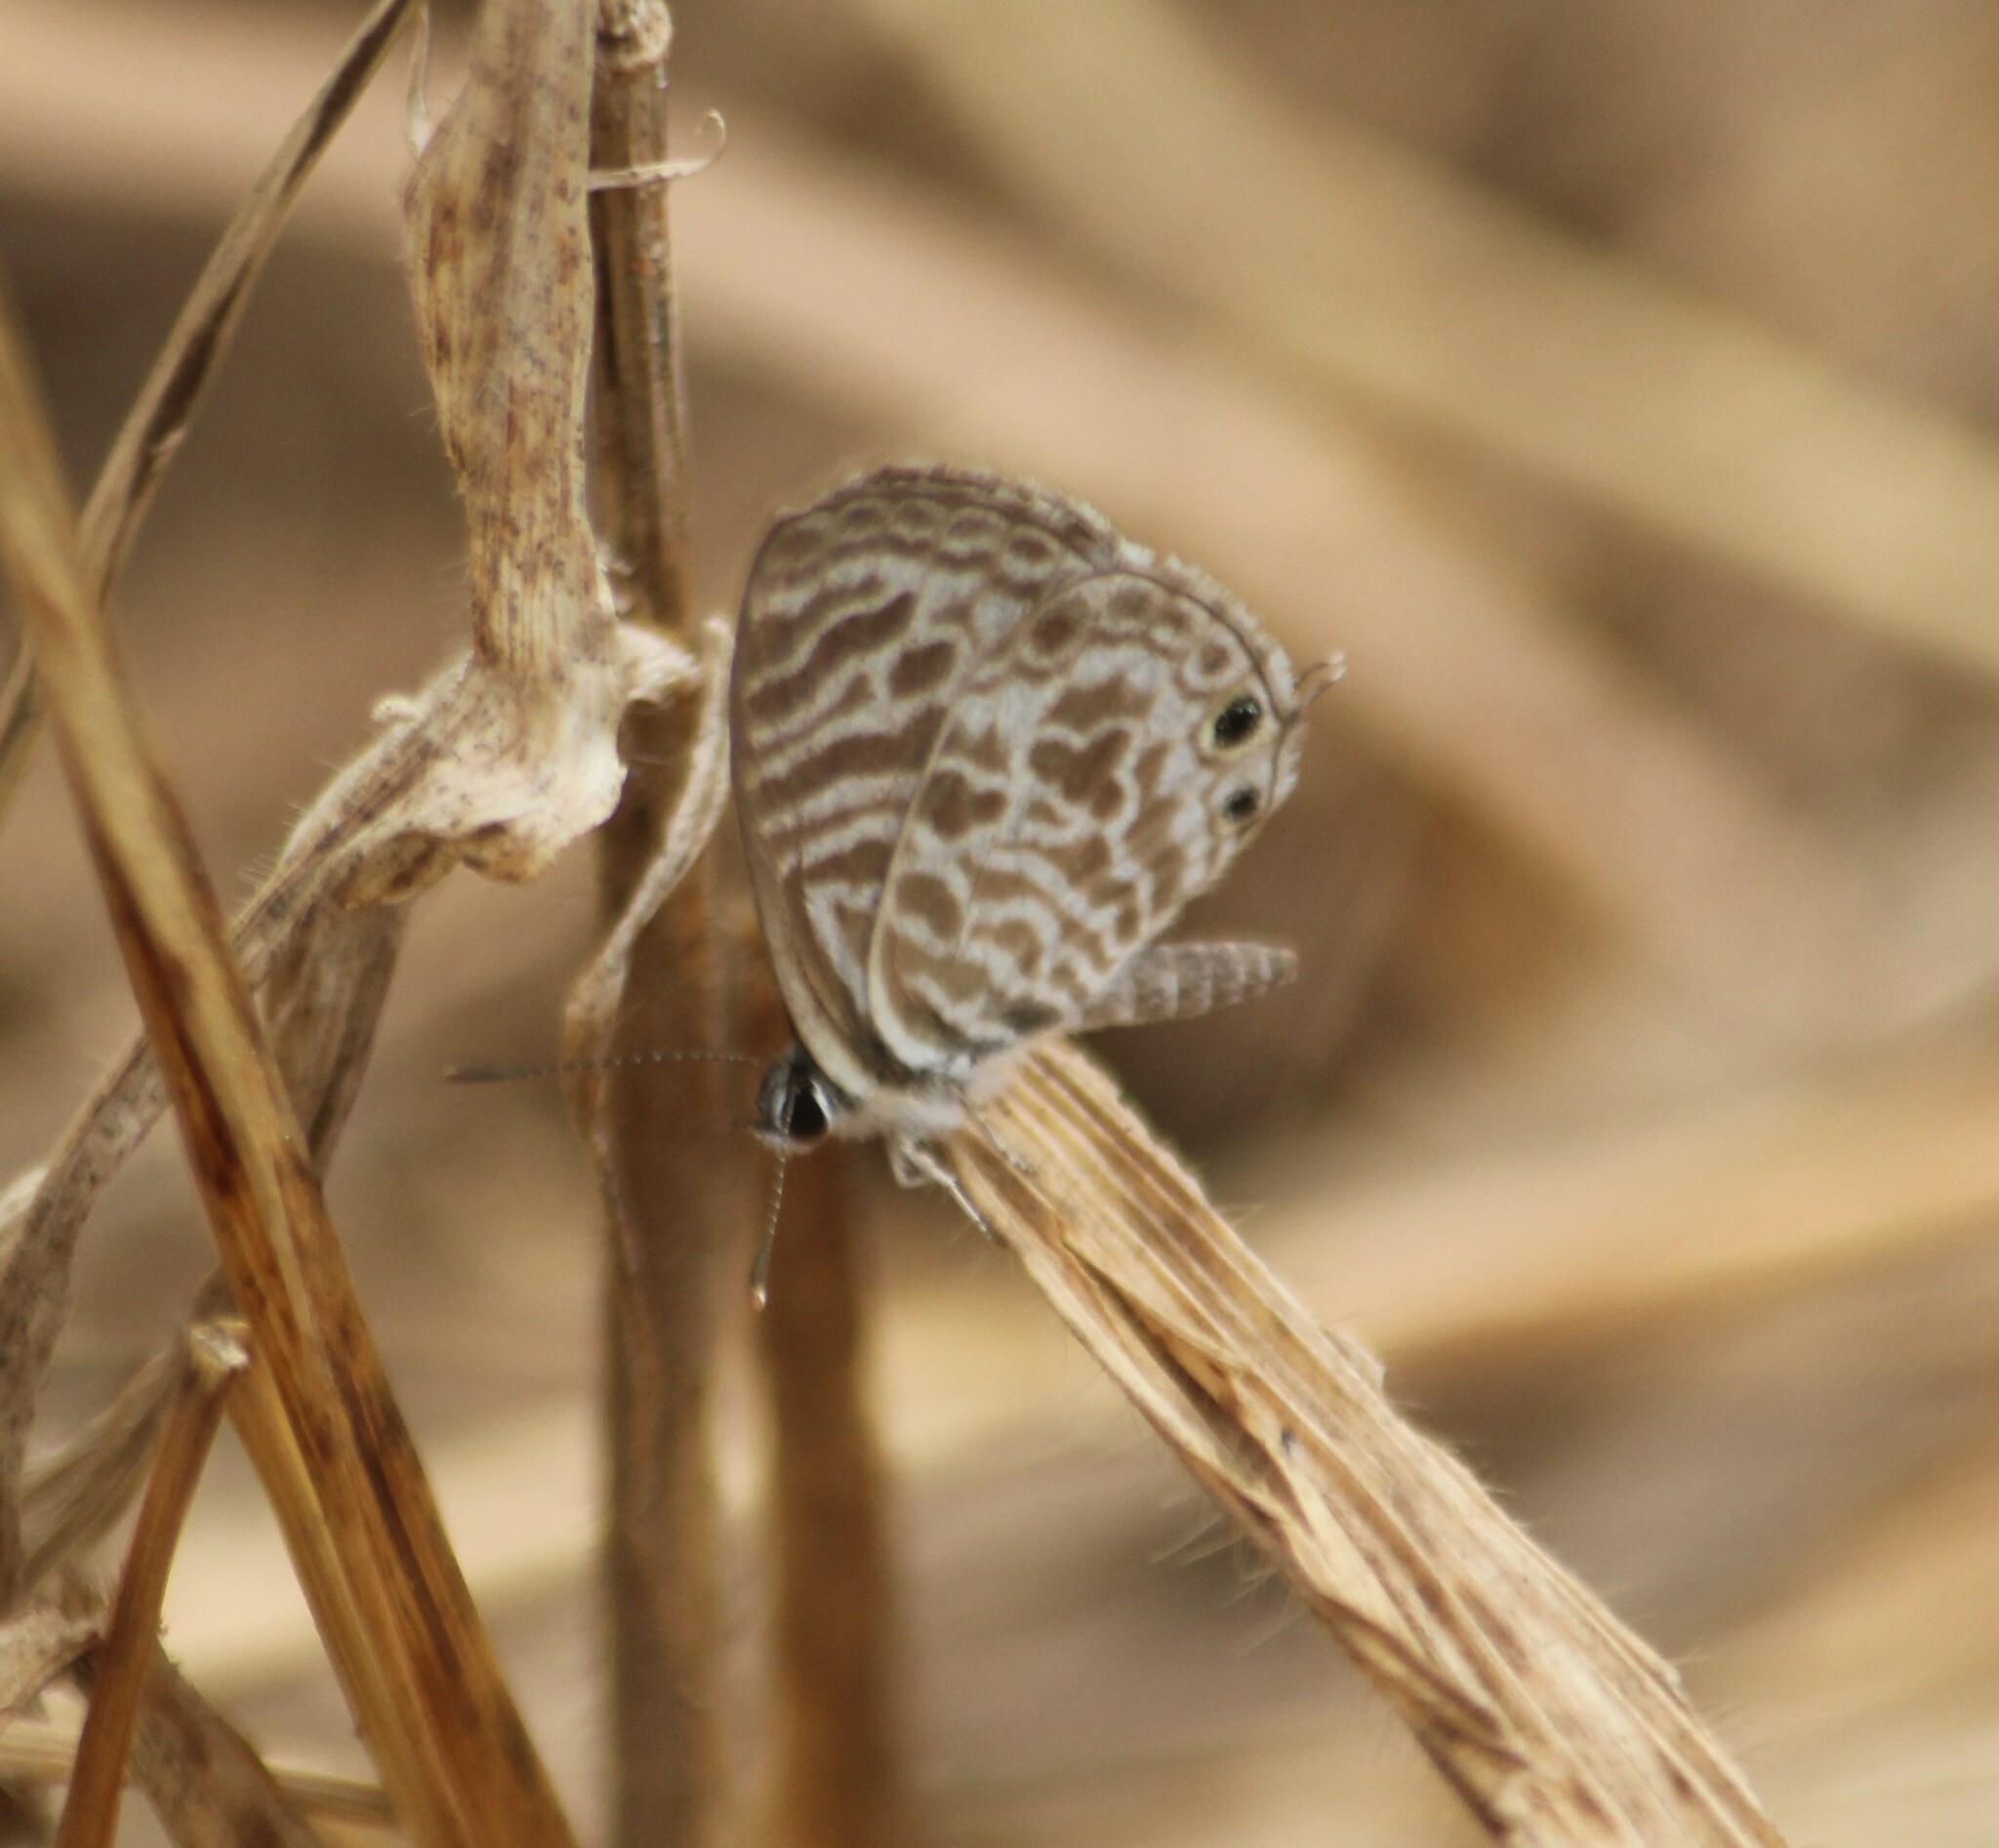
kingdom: Animalia
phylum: Arthropoda
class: Insecta
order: Lepidoptera
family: Lycaenidae
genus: Leptotes
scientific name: Leptotes plinius
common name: Zebra blue
